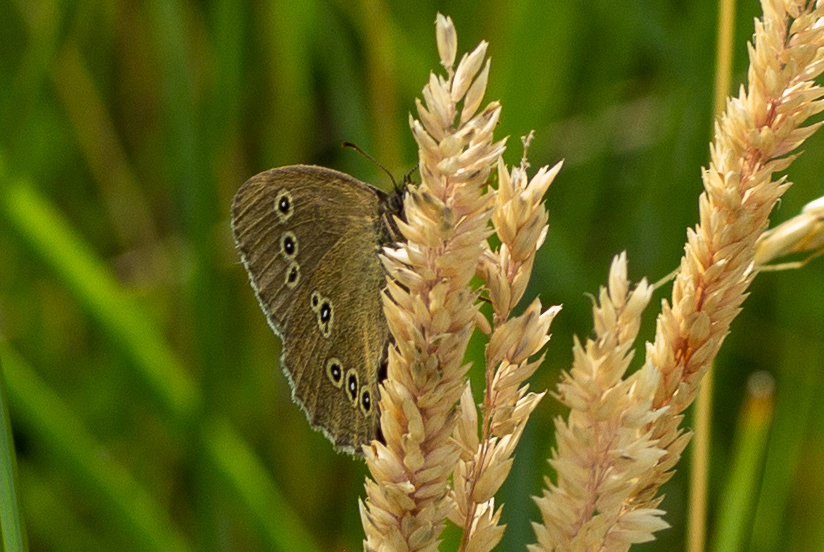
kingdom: Animalia
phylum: Arthropoda
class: Insecta
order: Lepidoptera
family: Nymphalidae
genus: Aphantopus
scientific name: Aphantopus hyperantus
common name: Ringlet
